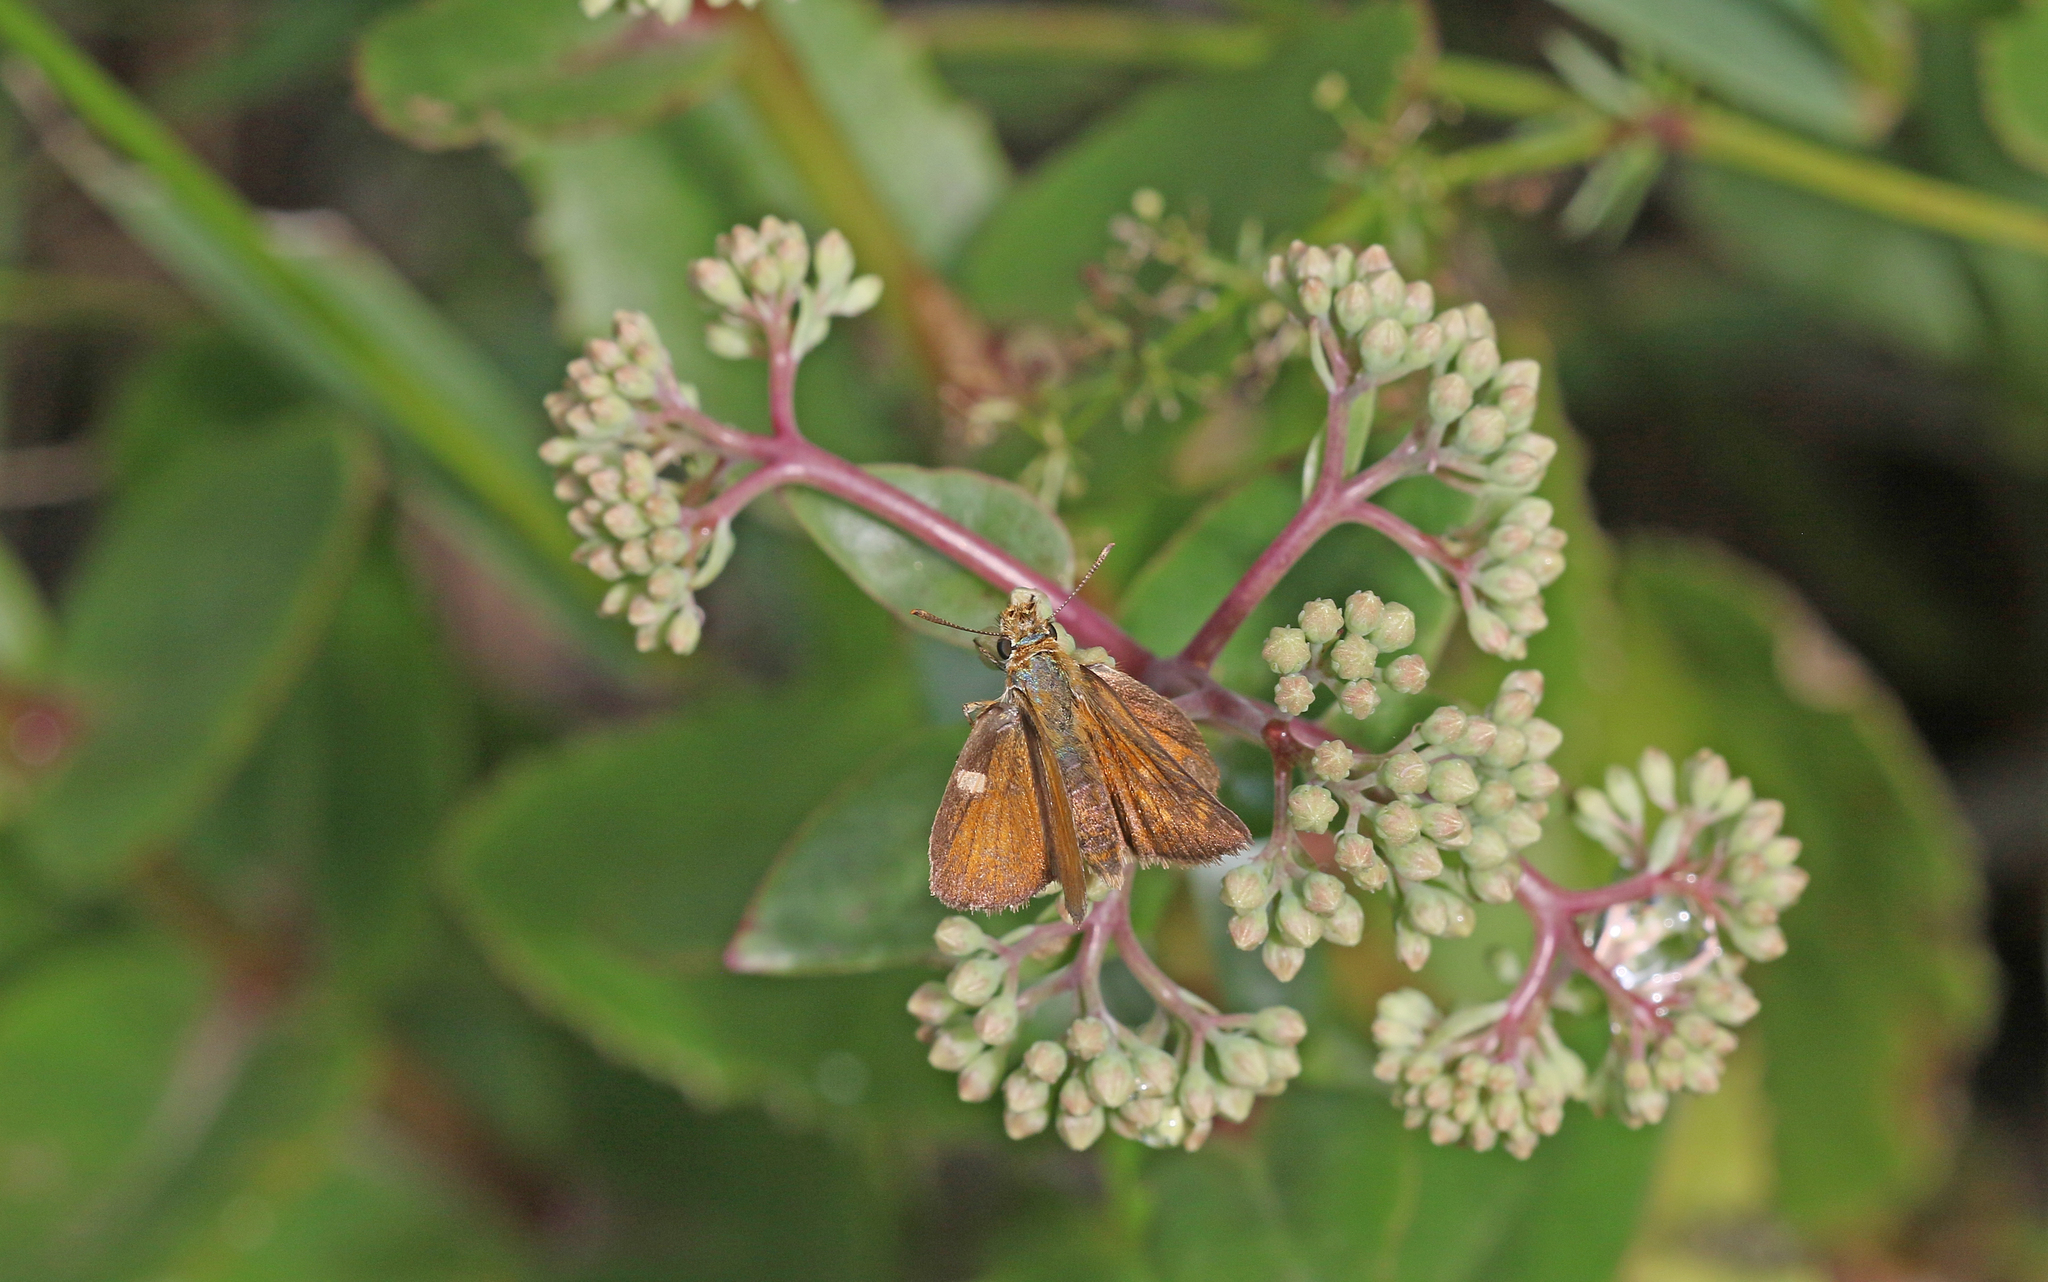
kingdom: Animalia
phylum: Arthropoda
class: Insecta
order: Lepidoptera
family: Hesperiidae
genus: Thymelicus
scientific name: Thymelicus acteon
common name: Lulworth skipper
